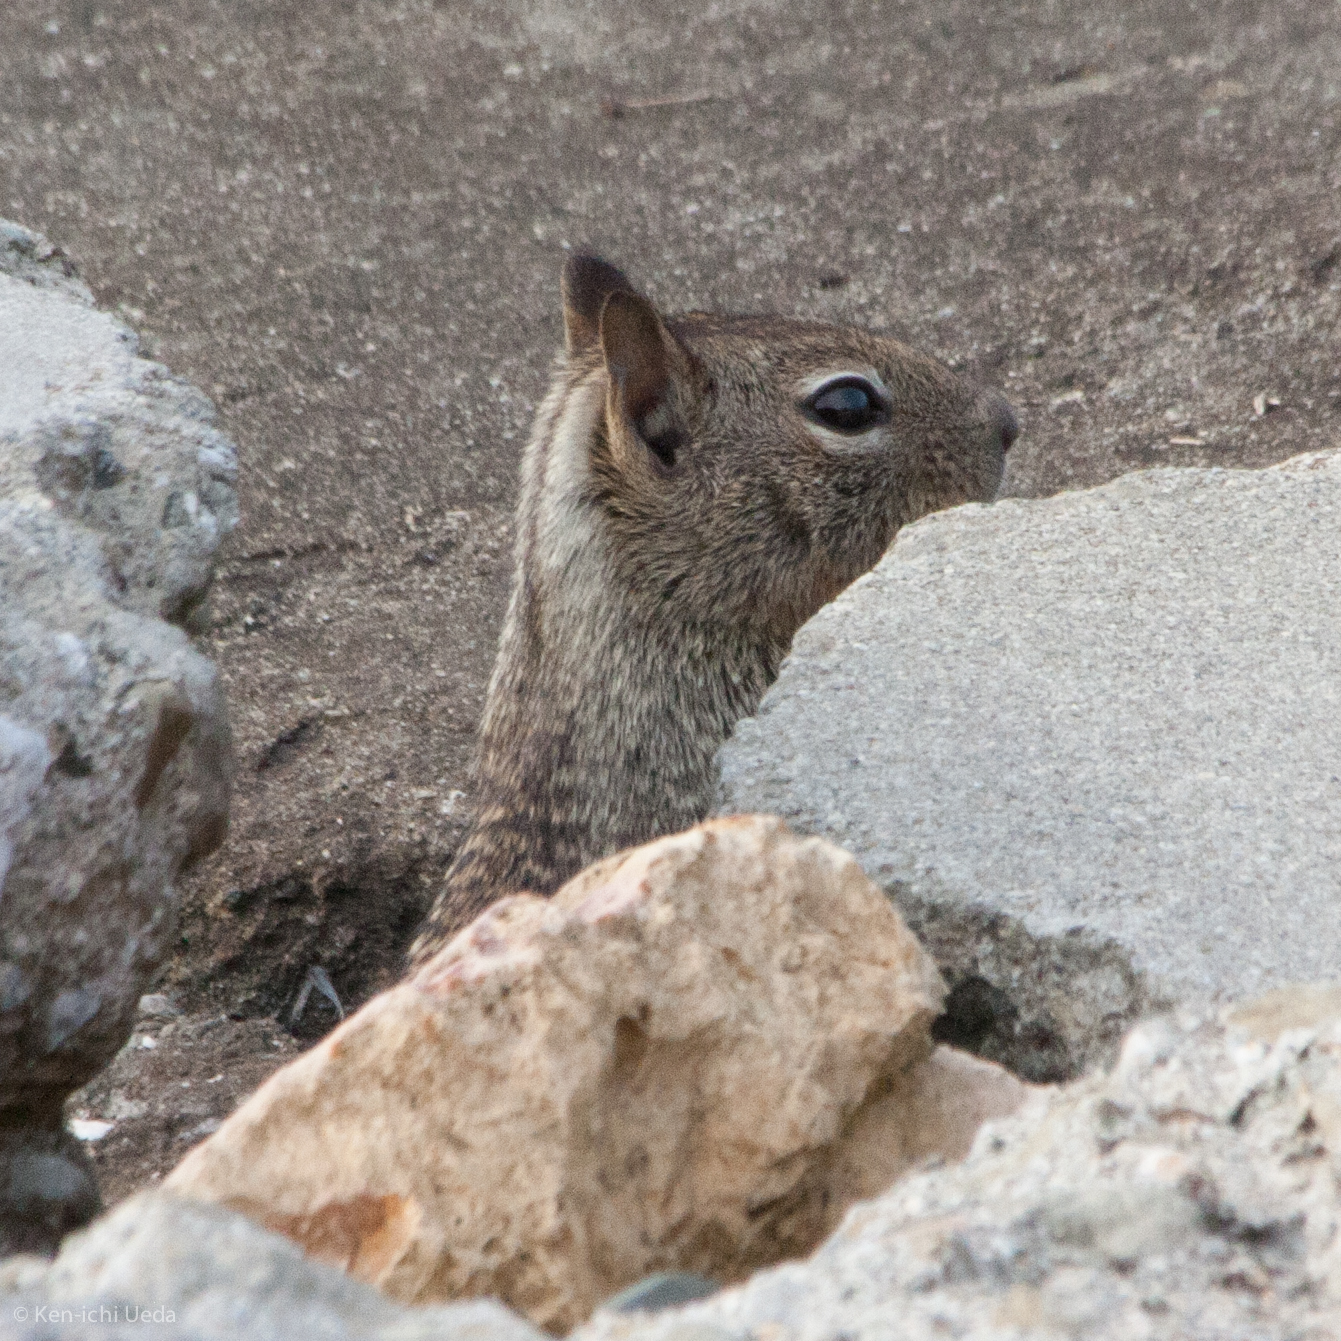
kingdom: Animalia
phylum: Chordata
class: Mammalia
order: Rodentia
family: Sciuridae
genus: Otospermophilus
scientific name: Otospermophilus beecheyi
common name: California ground squirrel
